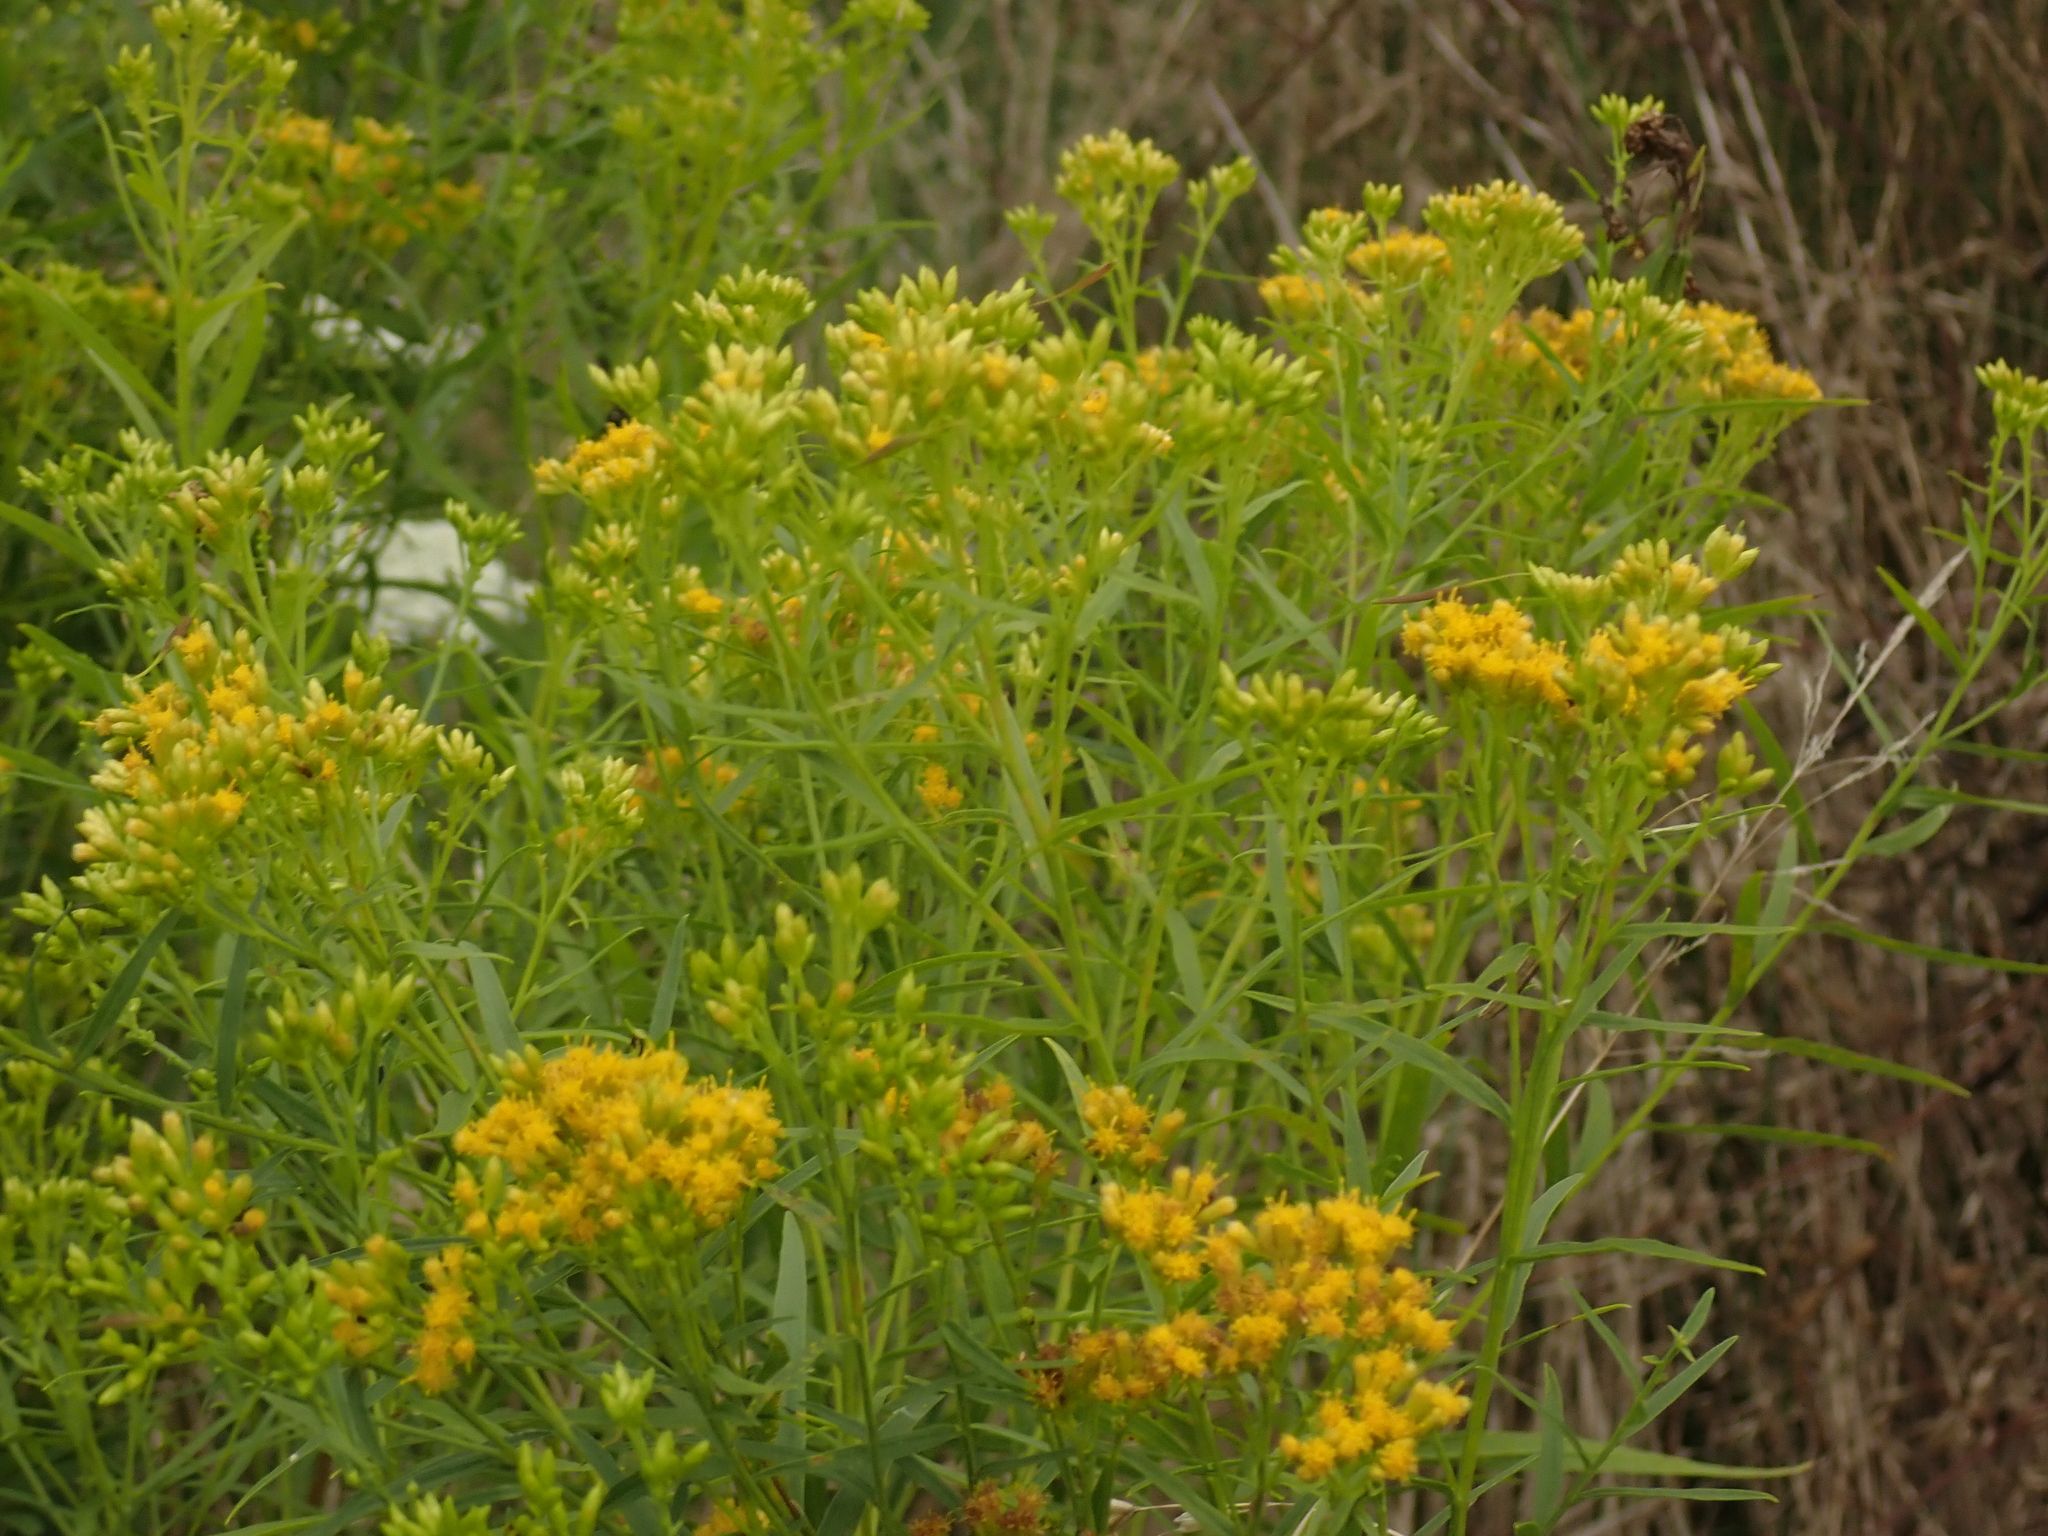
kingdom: Plantae
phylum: Tracheophyta
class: Magnoliopsida
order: Asterales
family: Asteraceae
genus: Euthamia
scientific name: Euthamia graminifolia
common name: Common goldentop
